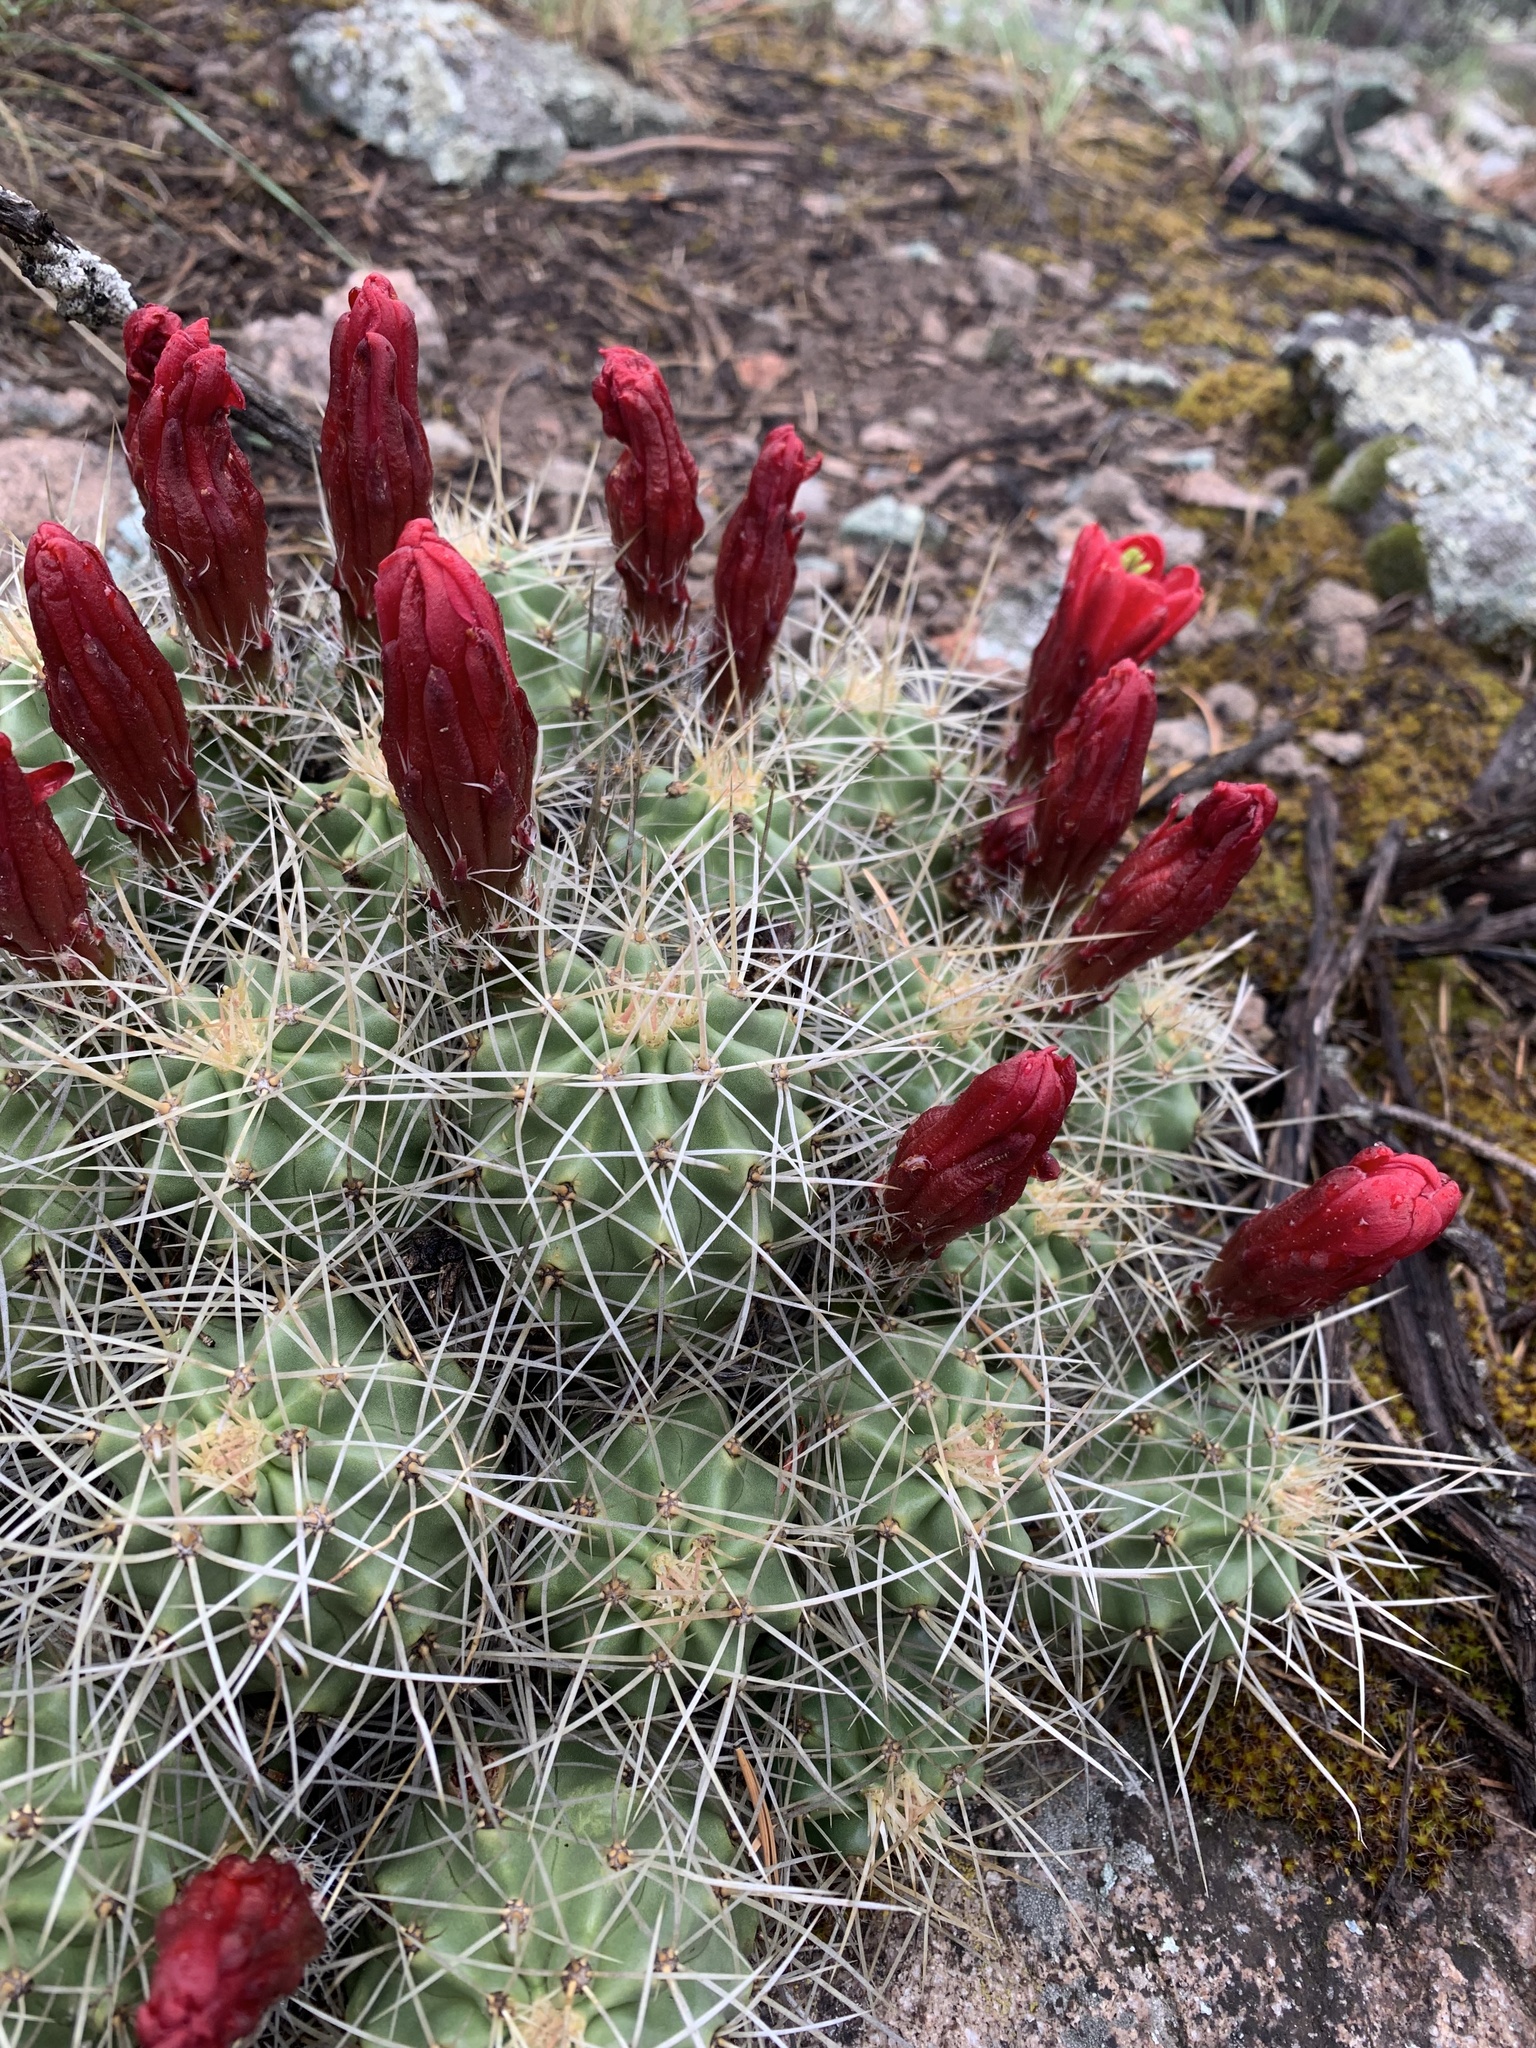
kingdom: Plantae
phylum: Tracheophyta
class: Magnoliopsida
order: Caryophyllales
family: Cactaceae
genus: Echinocereus
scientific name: Echinocereus triglochidiatus
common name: Claretcup hedgehog
